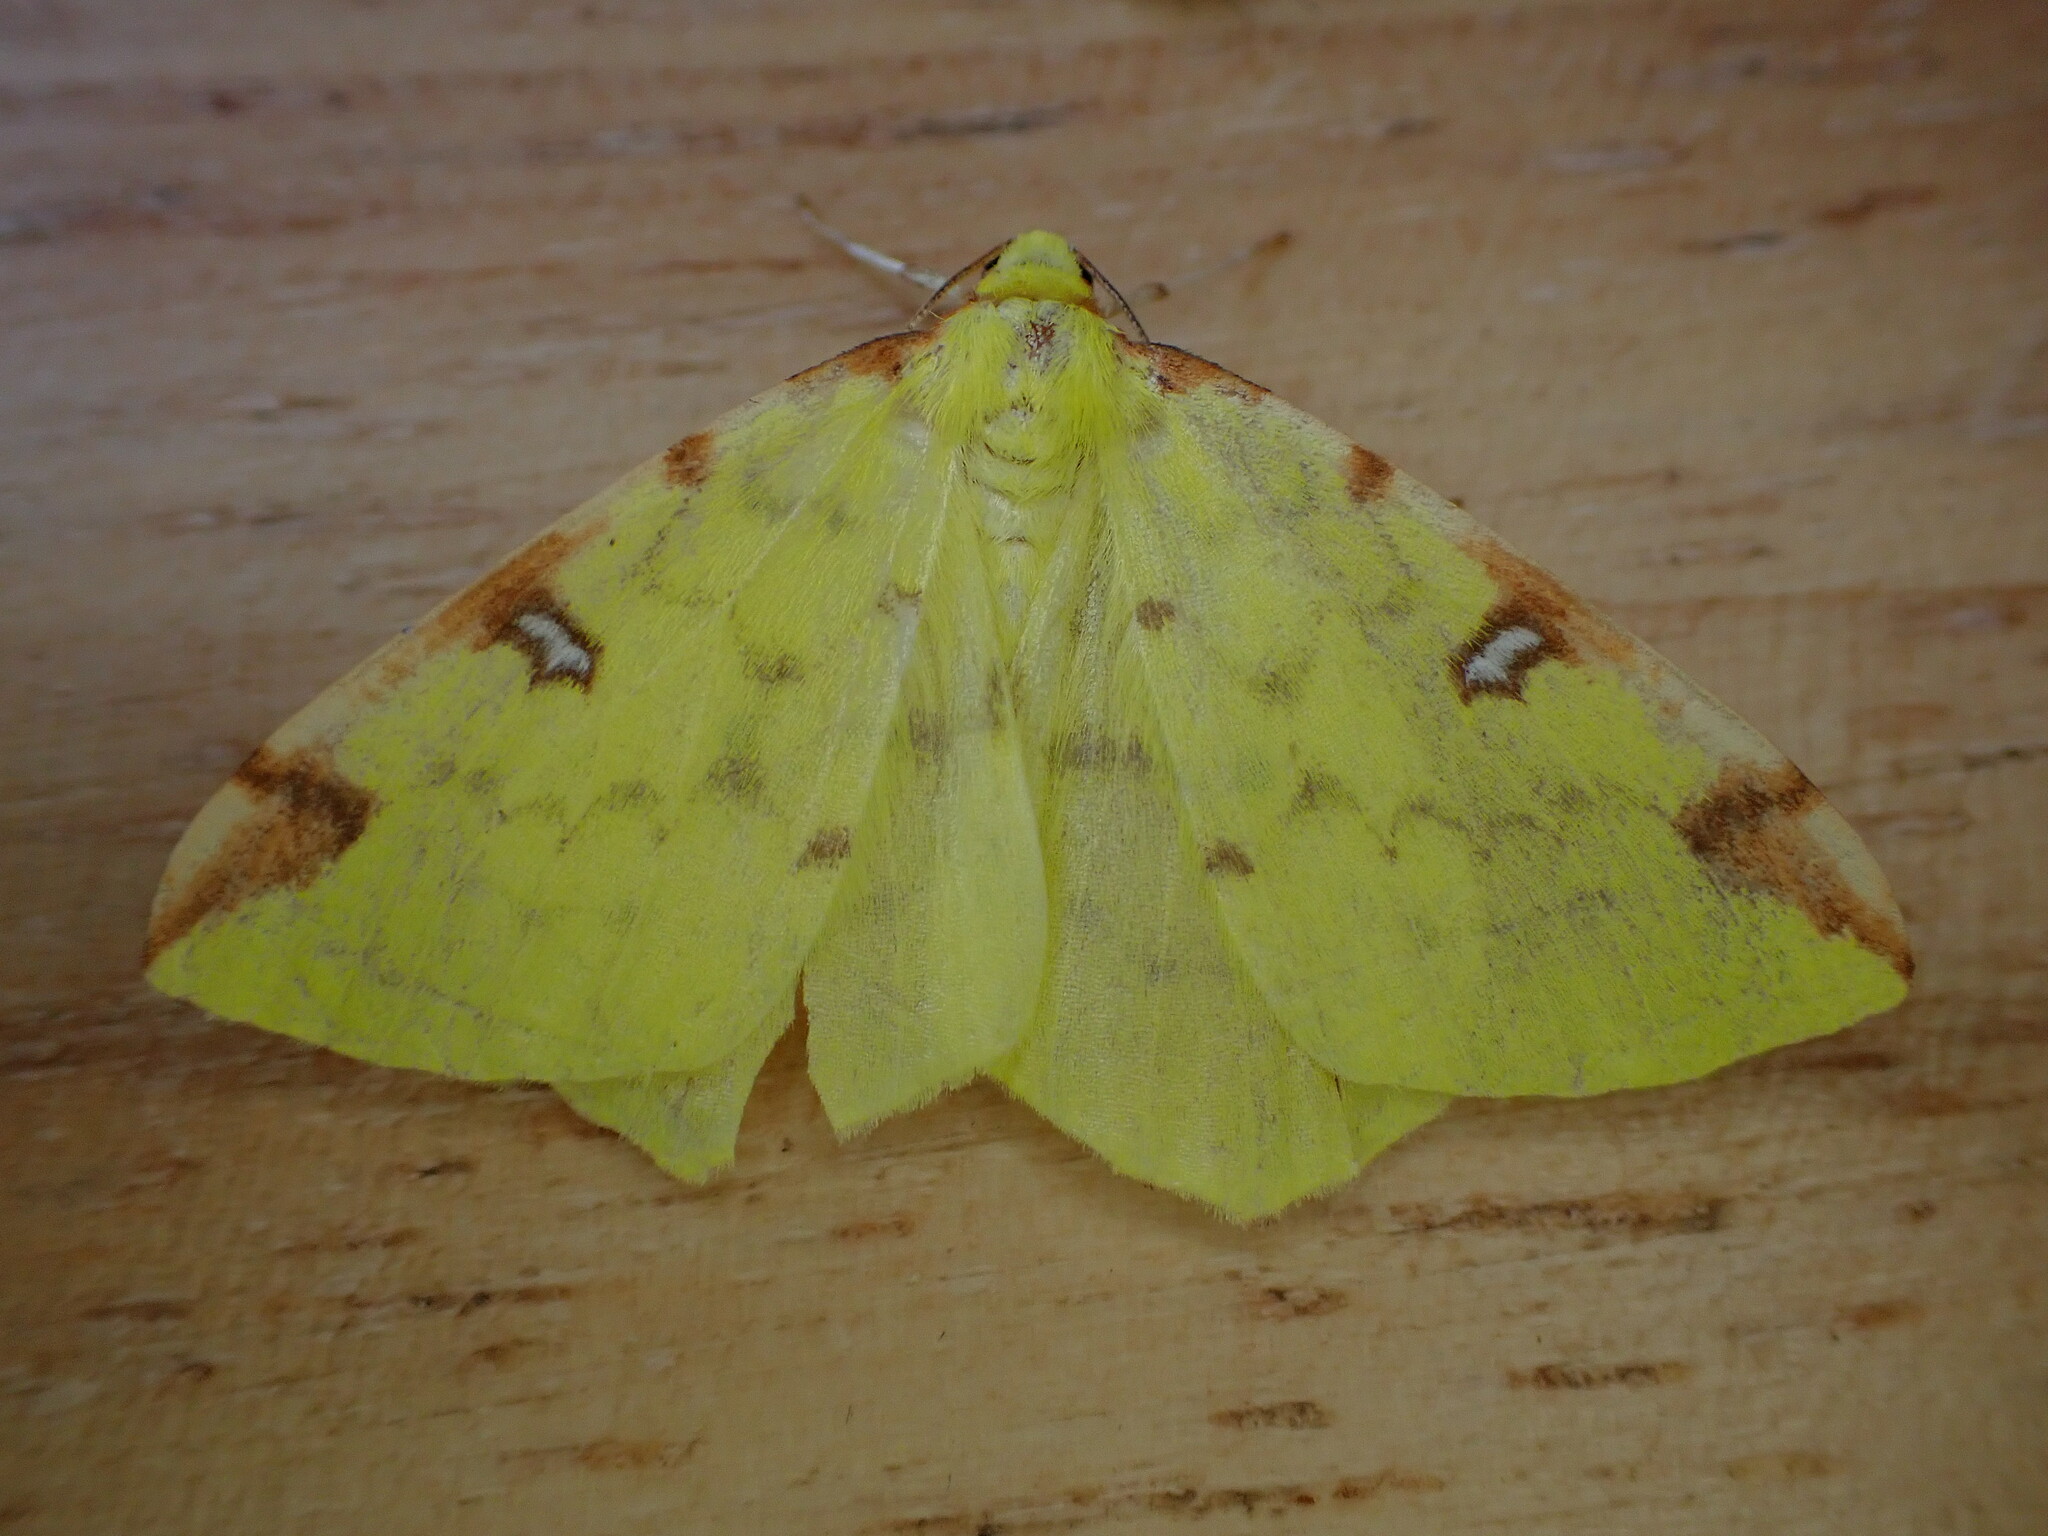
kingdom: Animalia
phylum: Arthropoda
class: Insecta
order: Lepidoptera
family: Geometridae
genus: Opisthograptis
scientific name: Opisthograptis luteolata
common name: Brimstone moth
